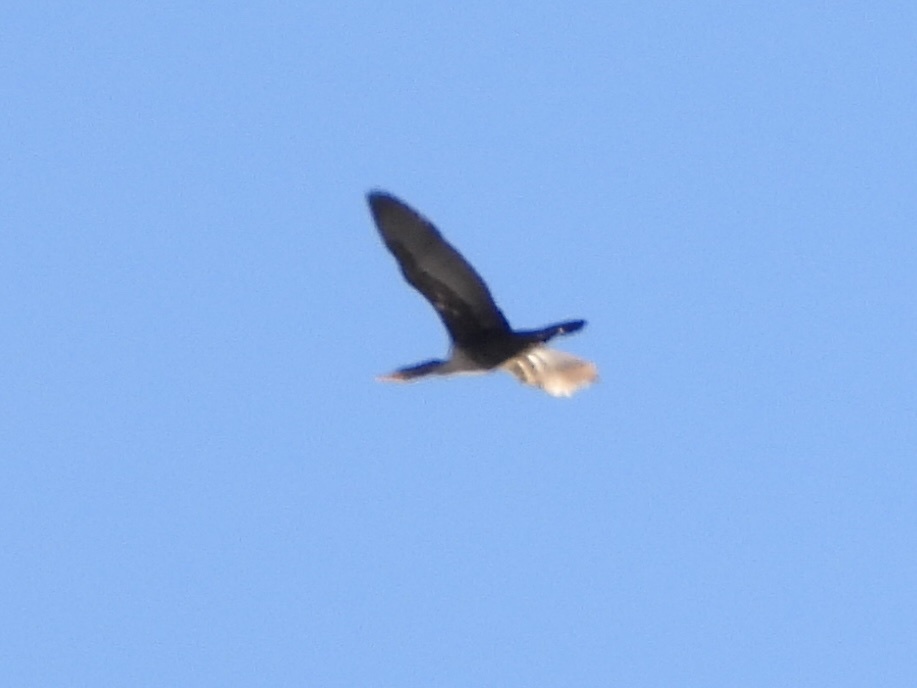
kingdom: Animalia
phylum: Chordata
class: Aves
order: Suliformes
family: Phalacrocoracidae
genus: Phalacrocorax
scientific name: Phalacrocorax auritus
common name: Double-crested cormorant
